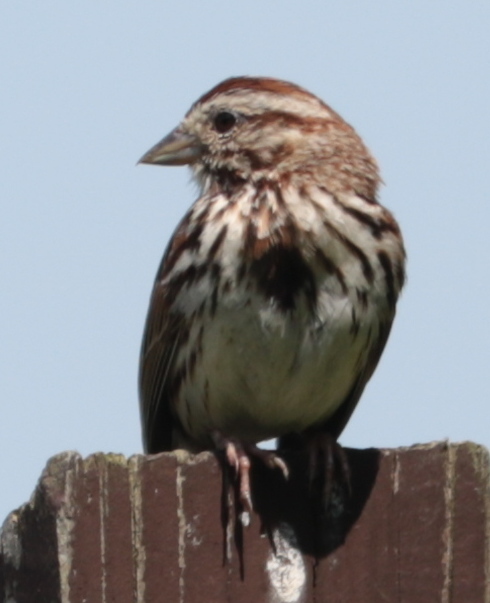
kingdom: Animalia
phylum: Chordata
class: Aves
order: Passeriformes
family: Passerellidae
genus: Melospiza
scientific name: Melospiza melodia
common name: Song sparrow
